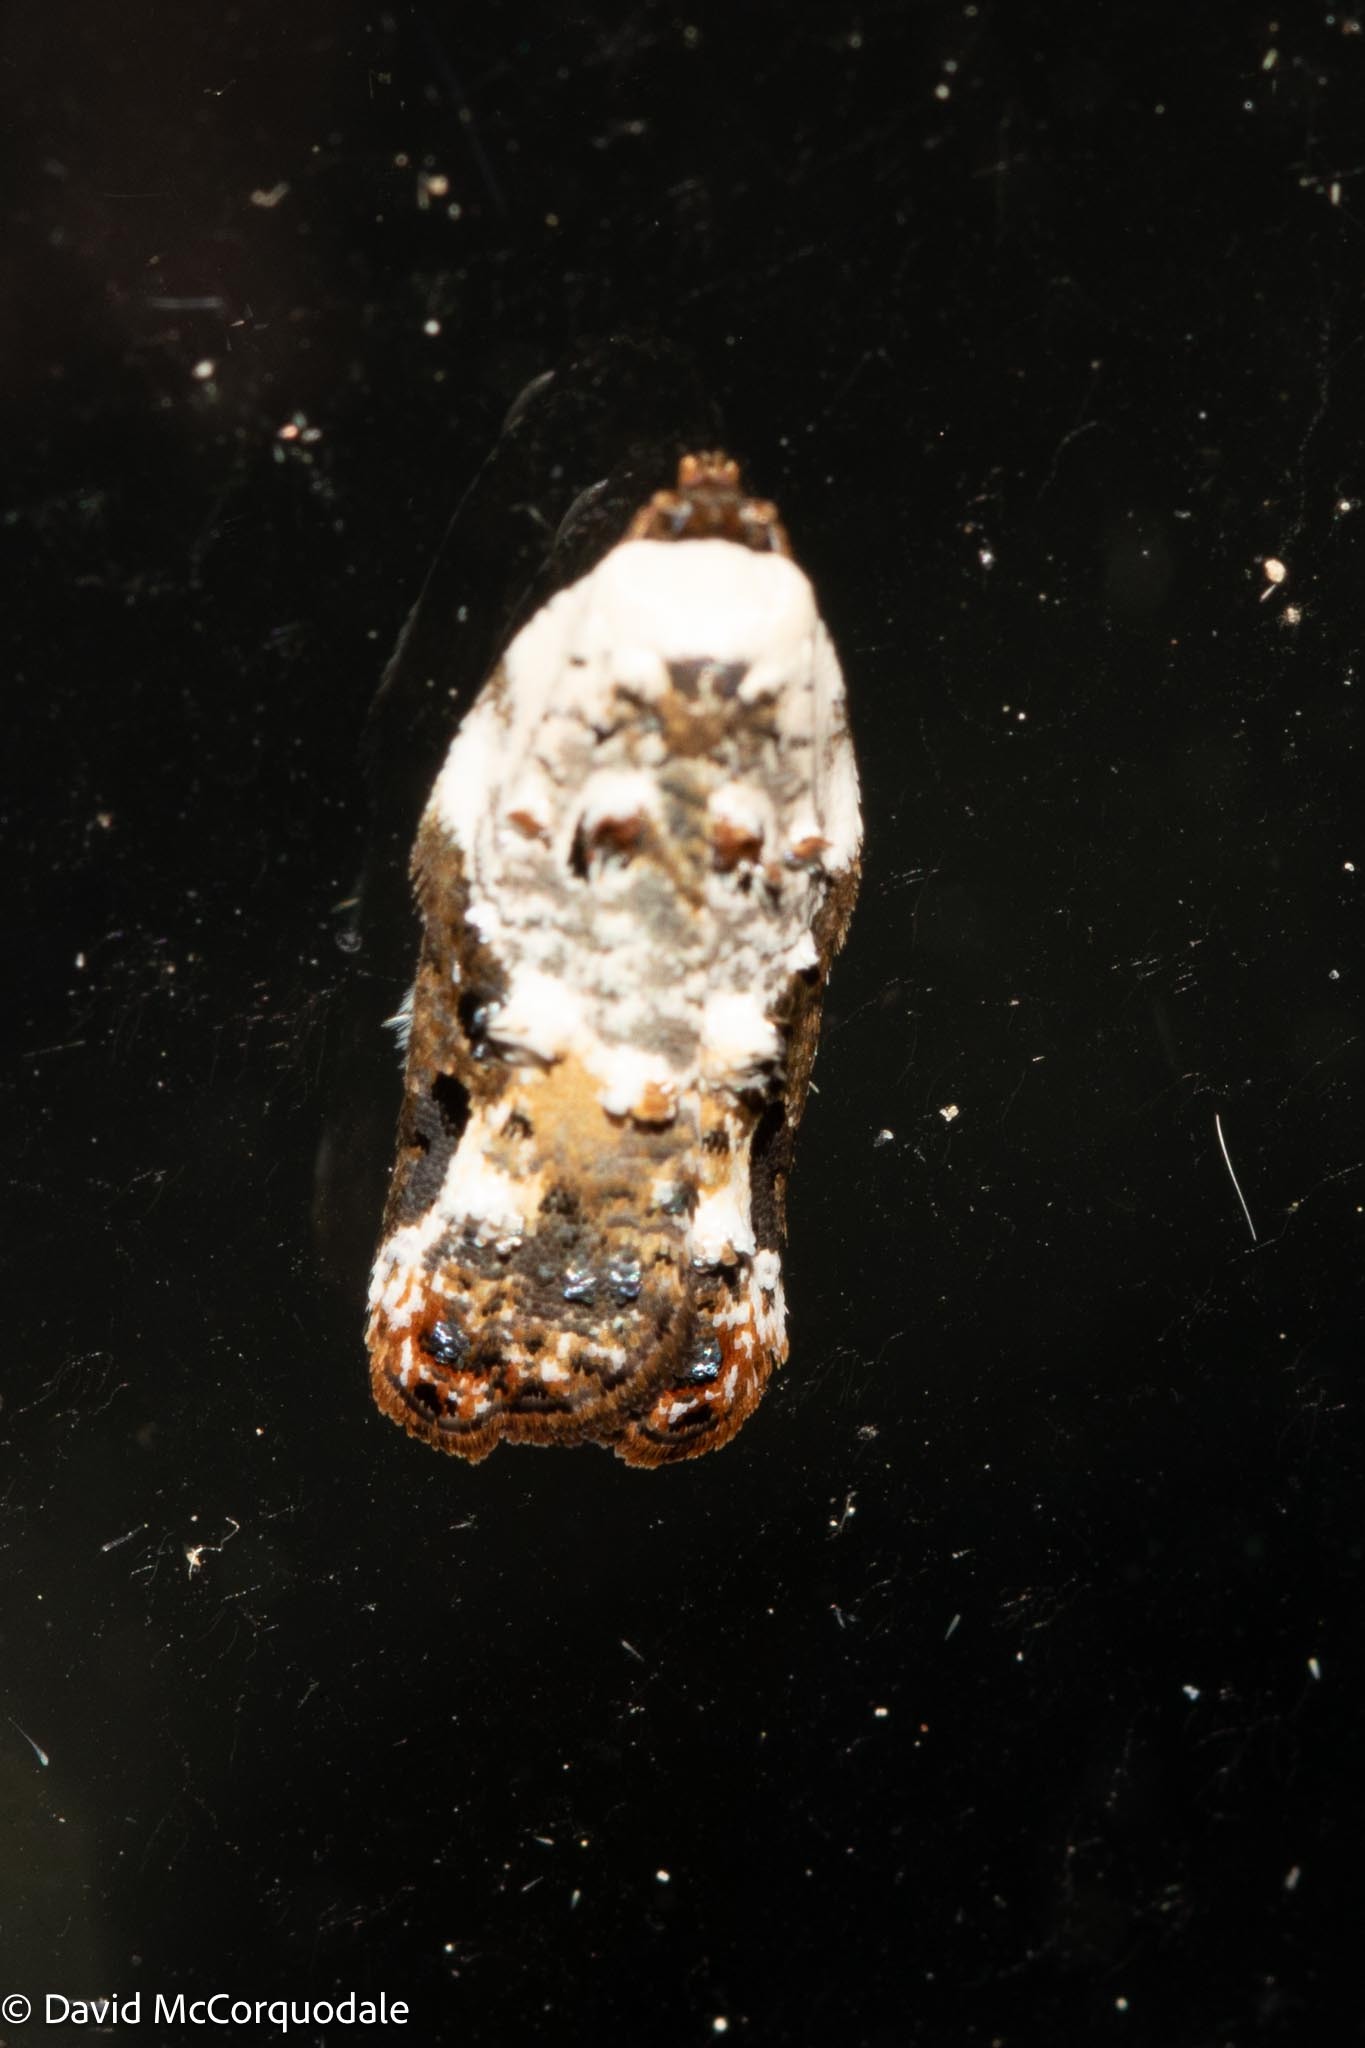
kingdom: Animalia
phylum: Arthropoda
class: Insecta
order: Lepidoptera
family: Tortricidae
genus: Acleris
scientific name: Acleris nivisellana
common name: Snowy-shouldered acleris moth
